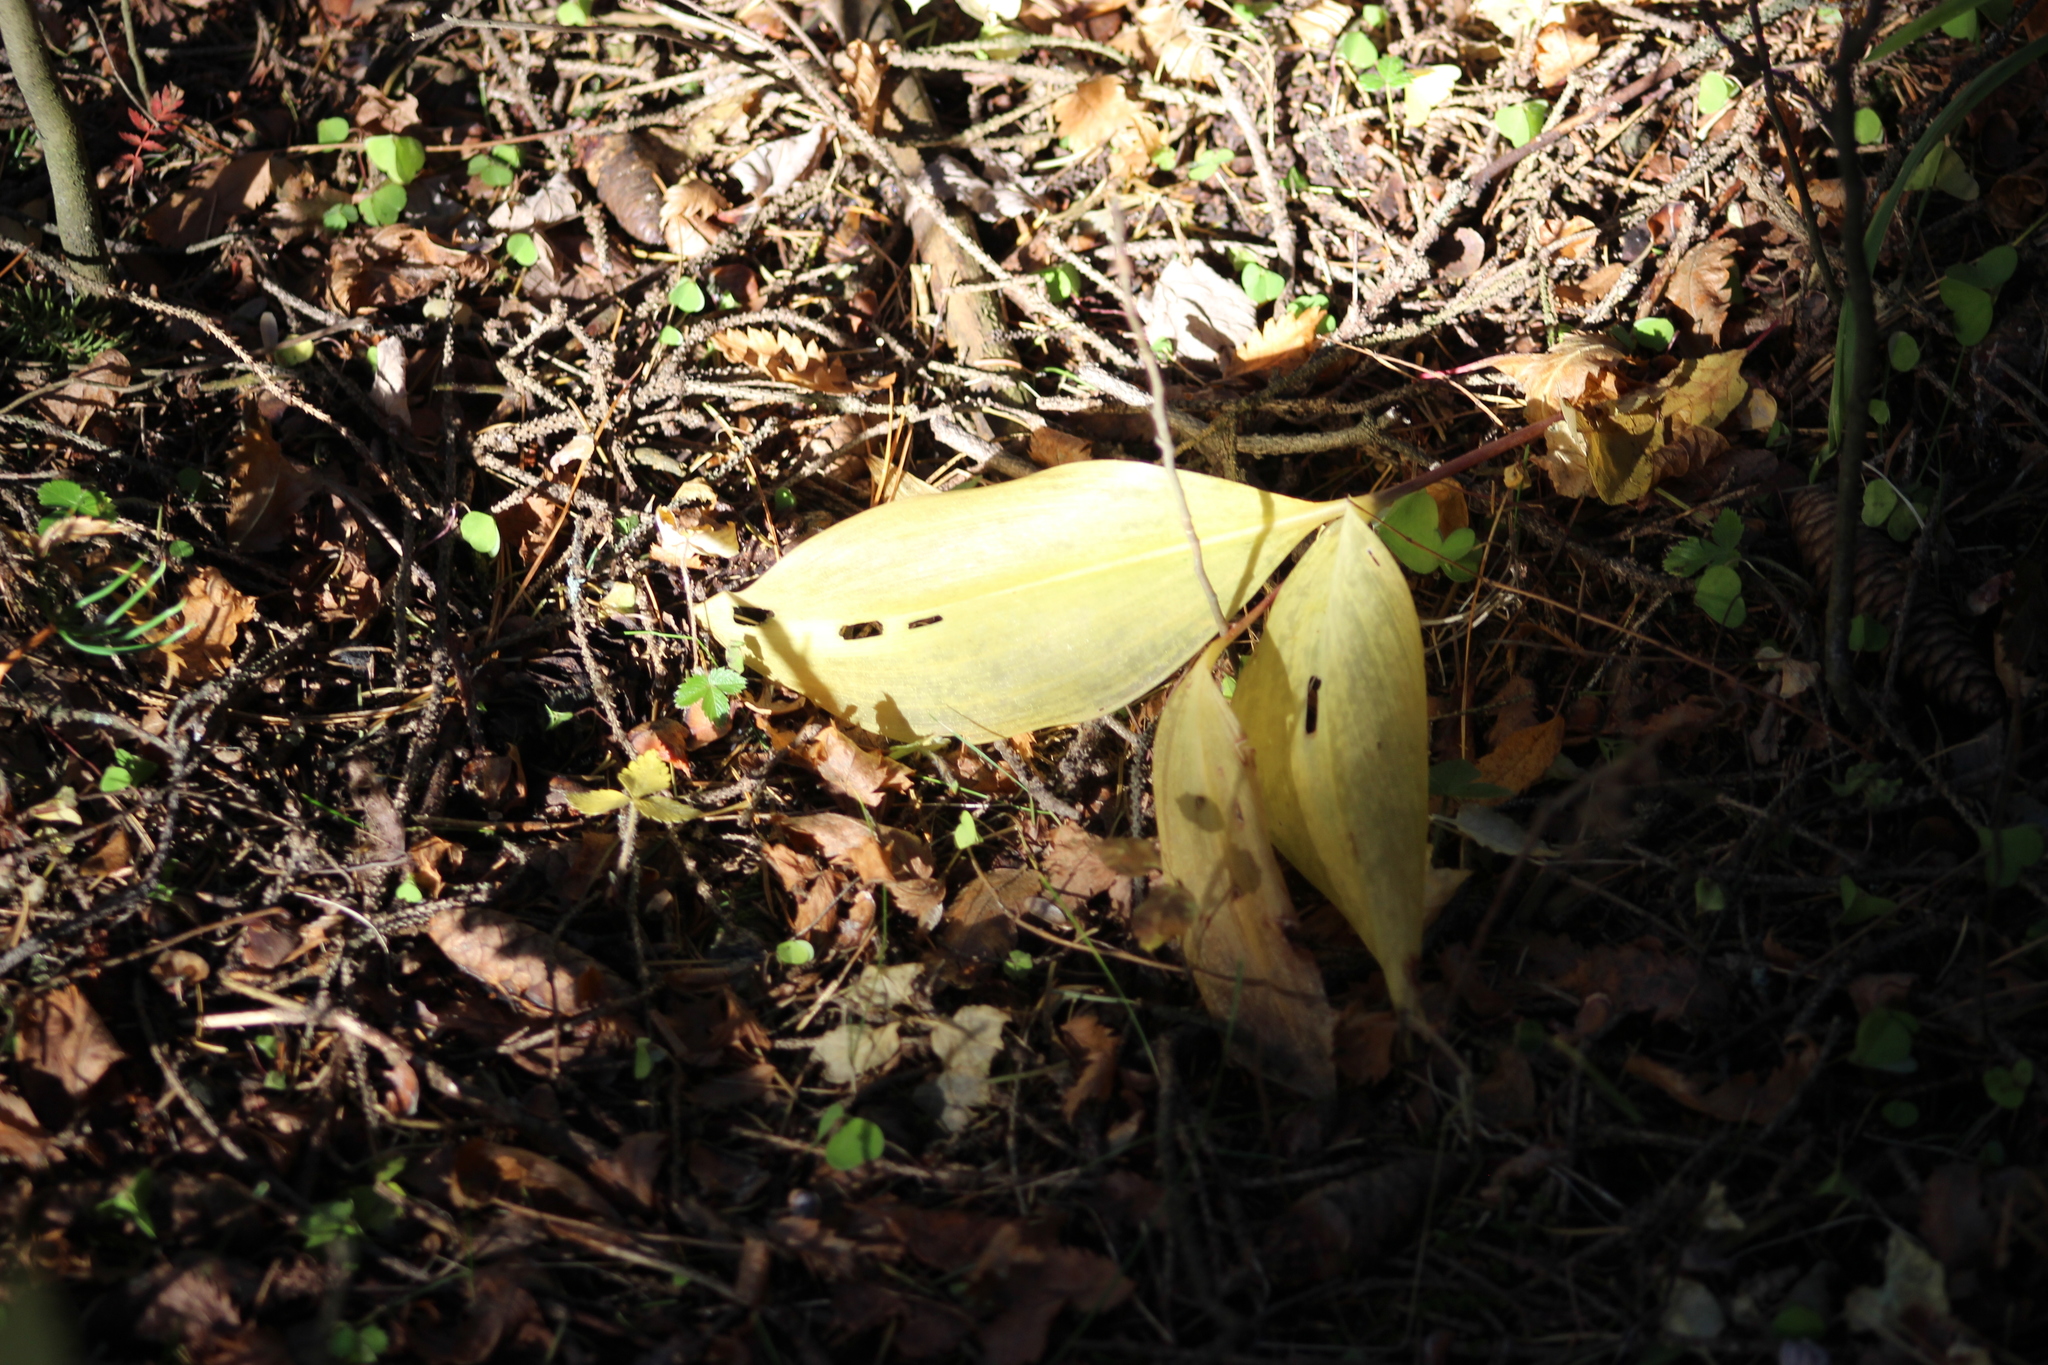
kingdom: Plantae
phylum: Tracheophyta
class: Liliopsida
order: Asparagales
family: Asparagaceae
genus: Convallaria
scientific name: Convallaria majalis
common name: Lily-of-the-valley
